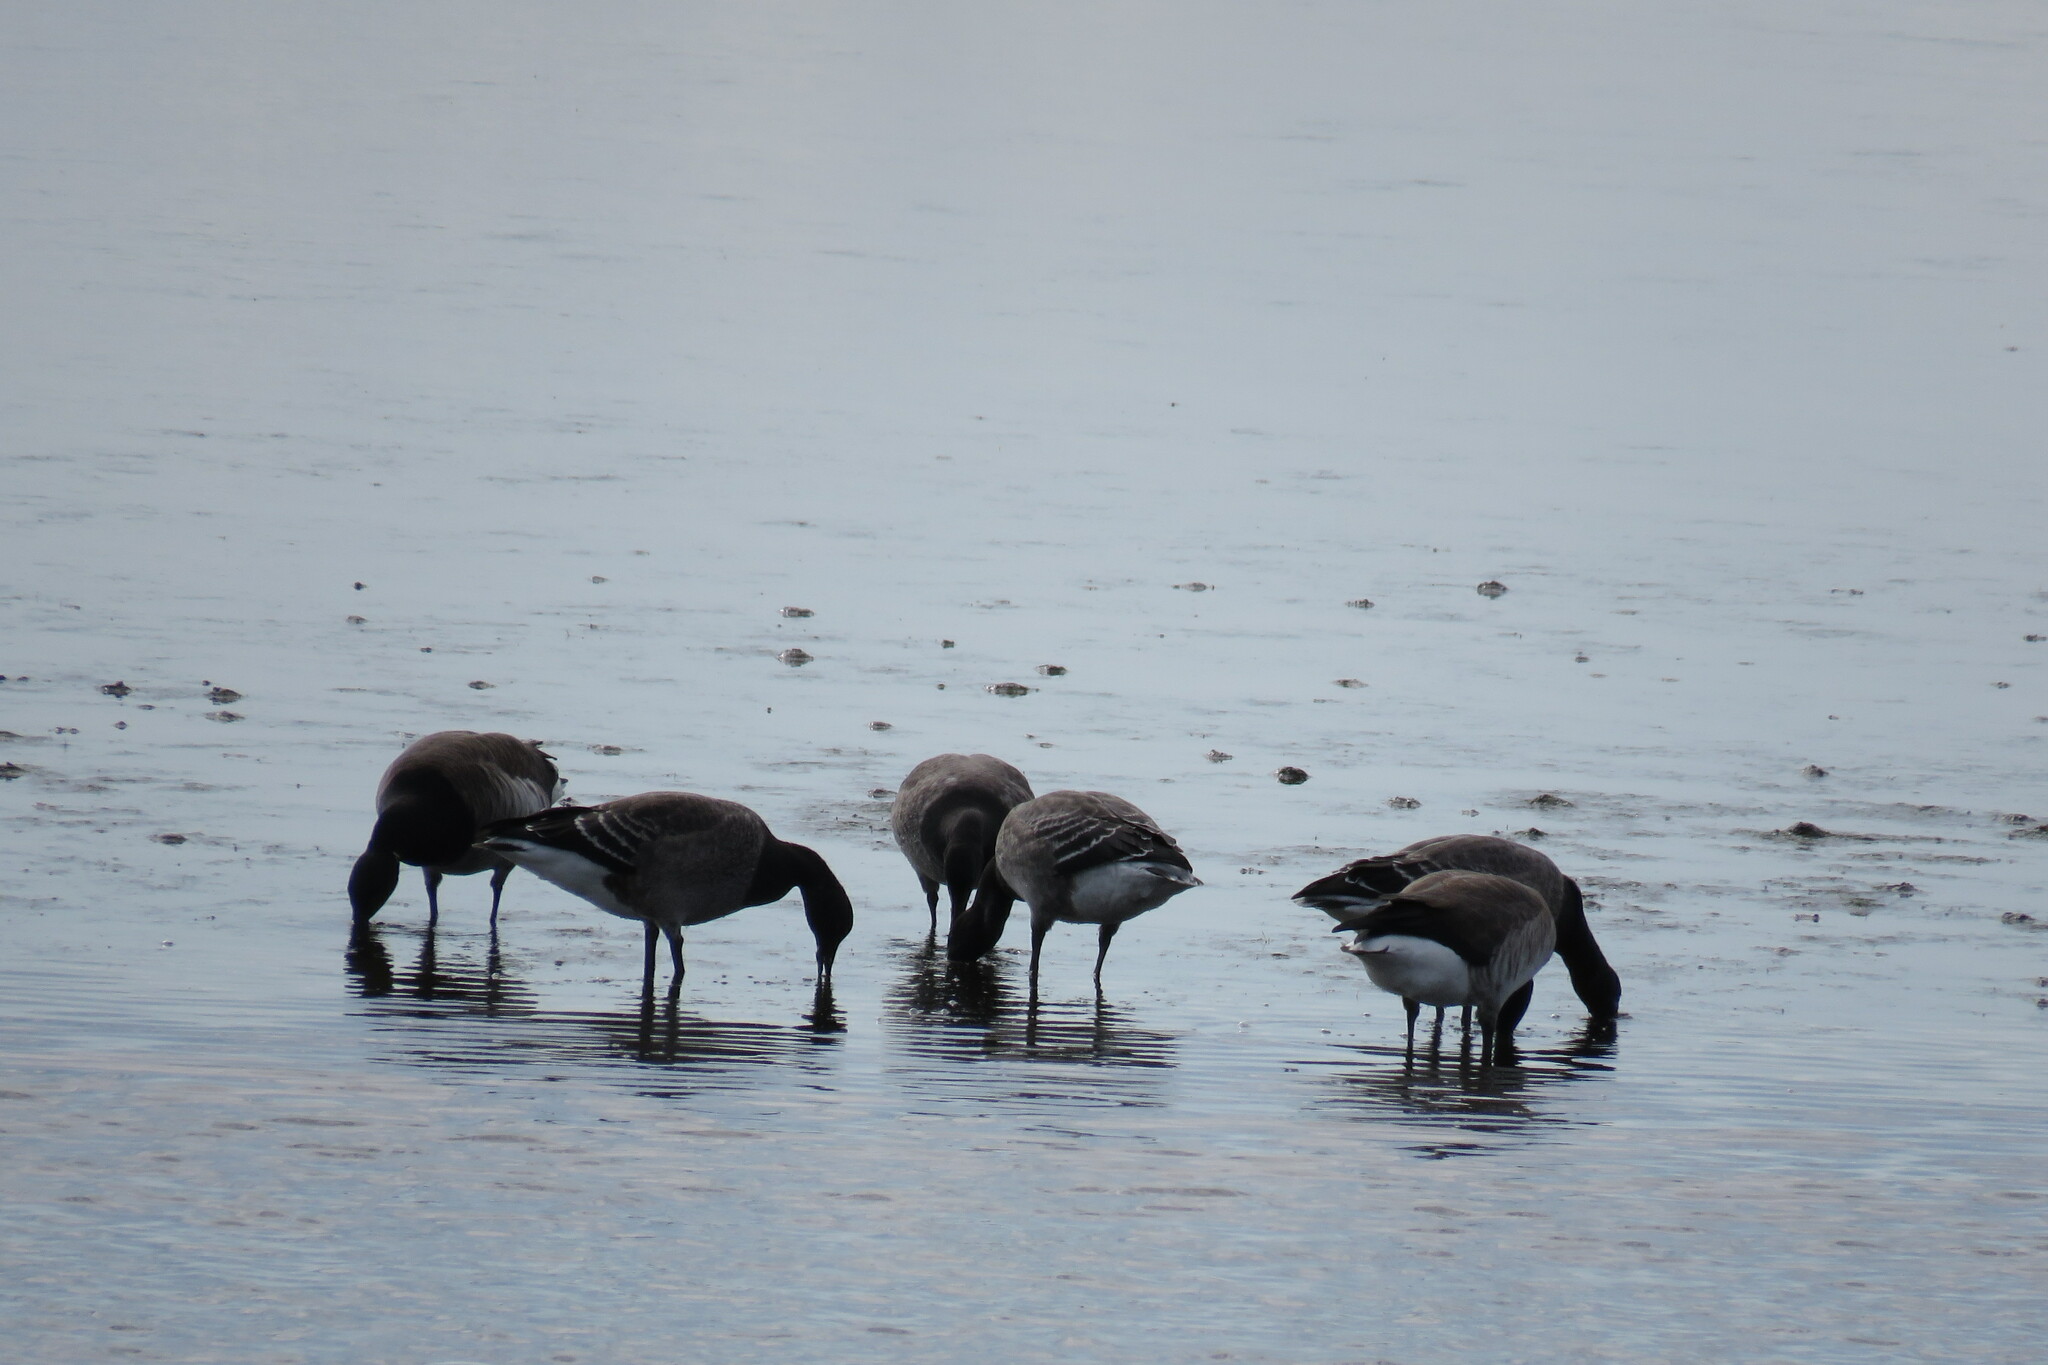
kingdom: Animalia
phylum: Chordata
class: Aves
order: Anseriformes
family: Anatidae
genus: Branta
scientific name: Branta bernicla
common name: Brant goose
